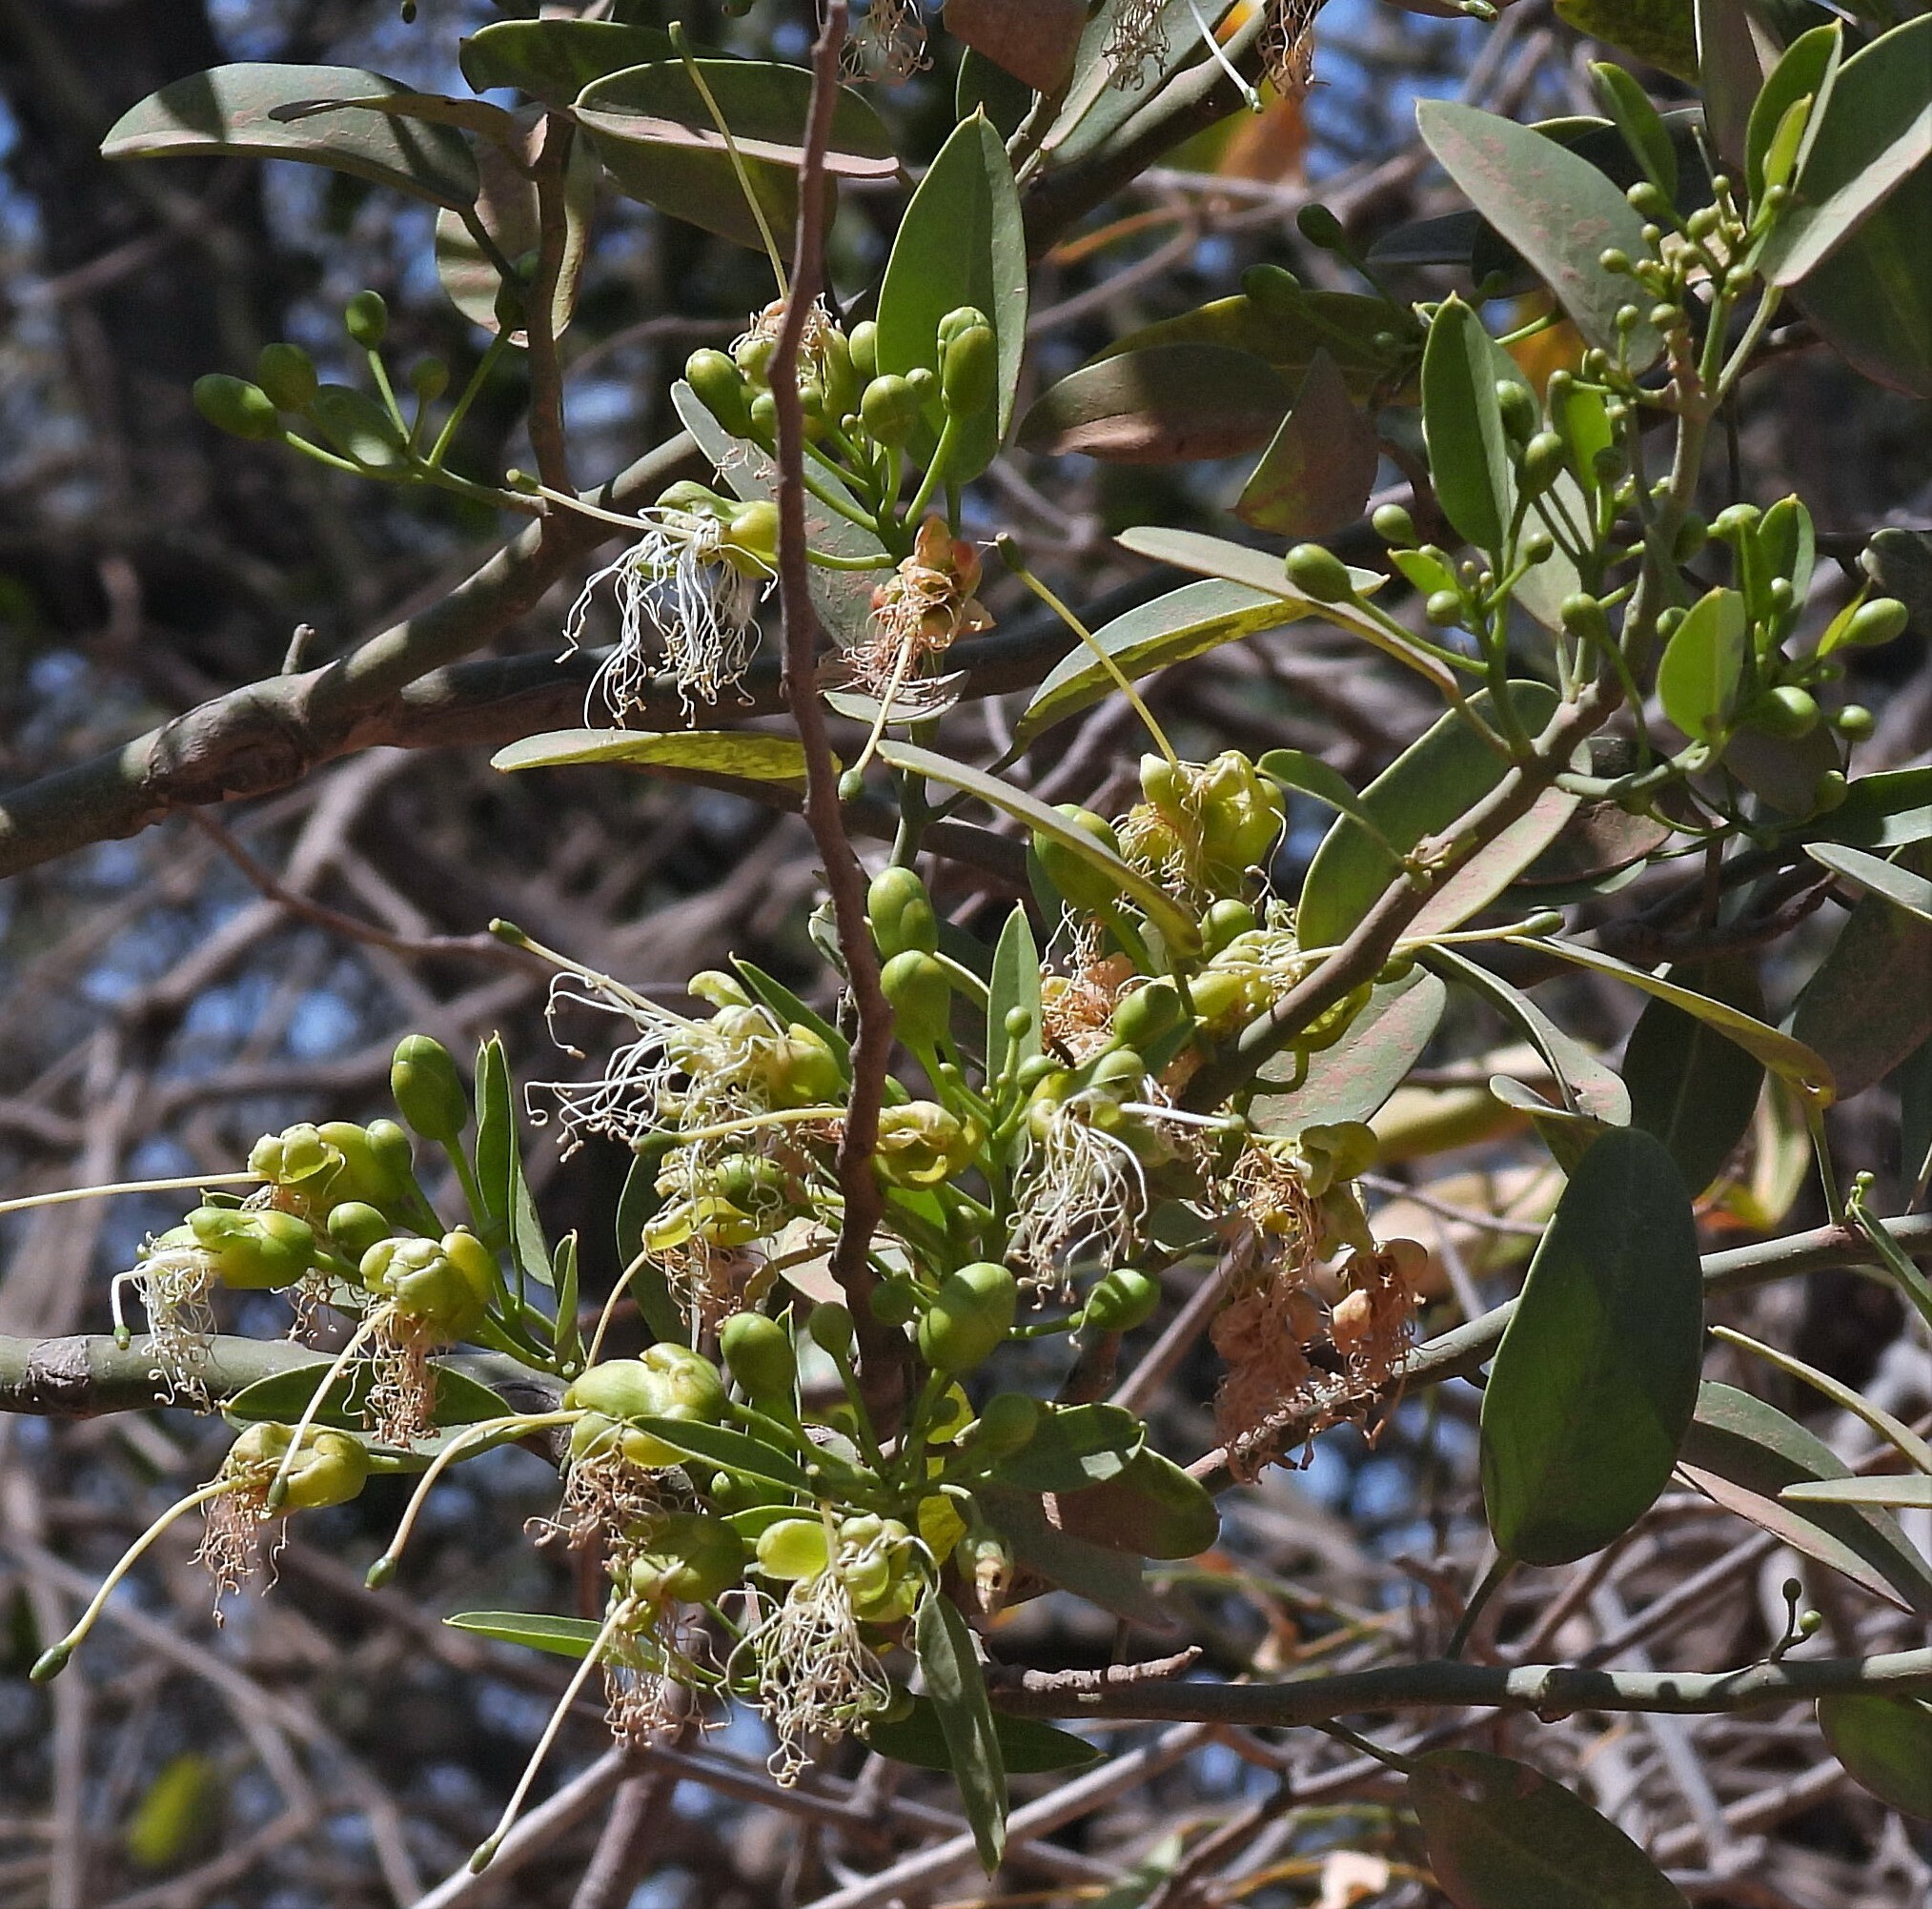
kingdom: Plantae
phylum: Tracheophyta
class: Magnoliopsida
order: Brassicales
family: Capparaceae
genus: Anisocapparis
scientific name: Anisocapparis speciosa
